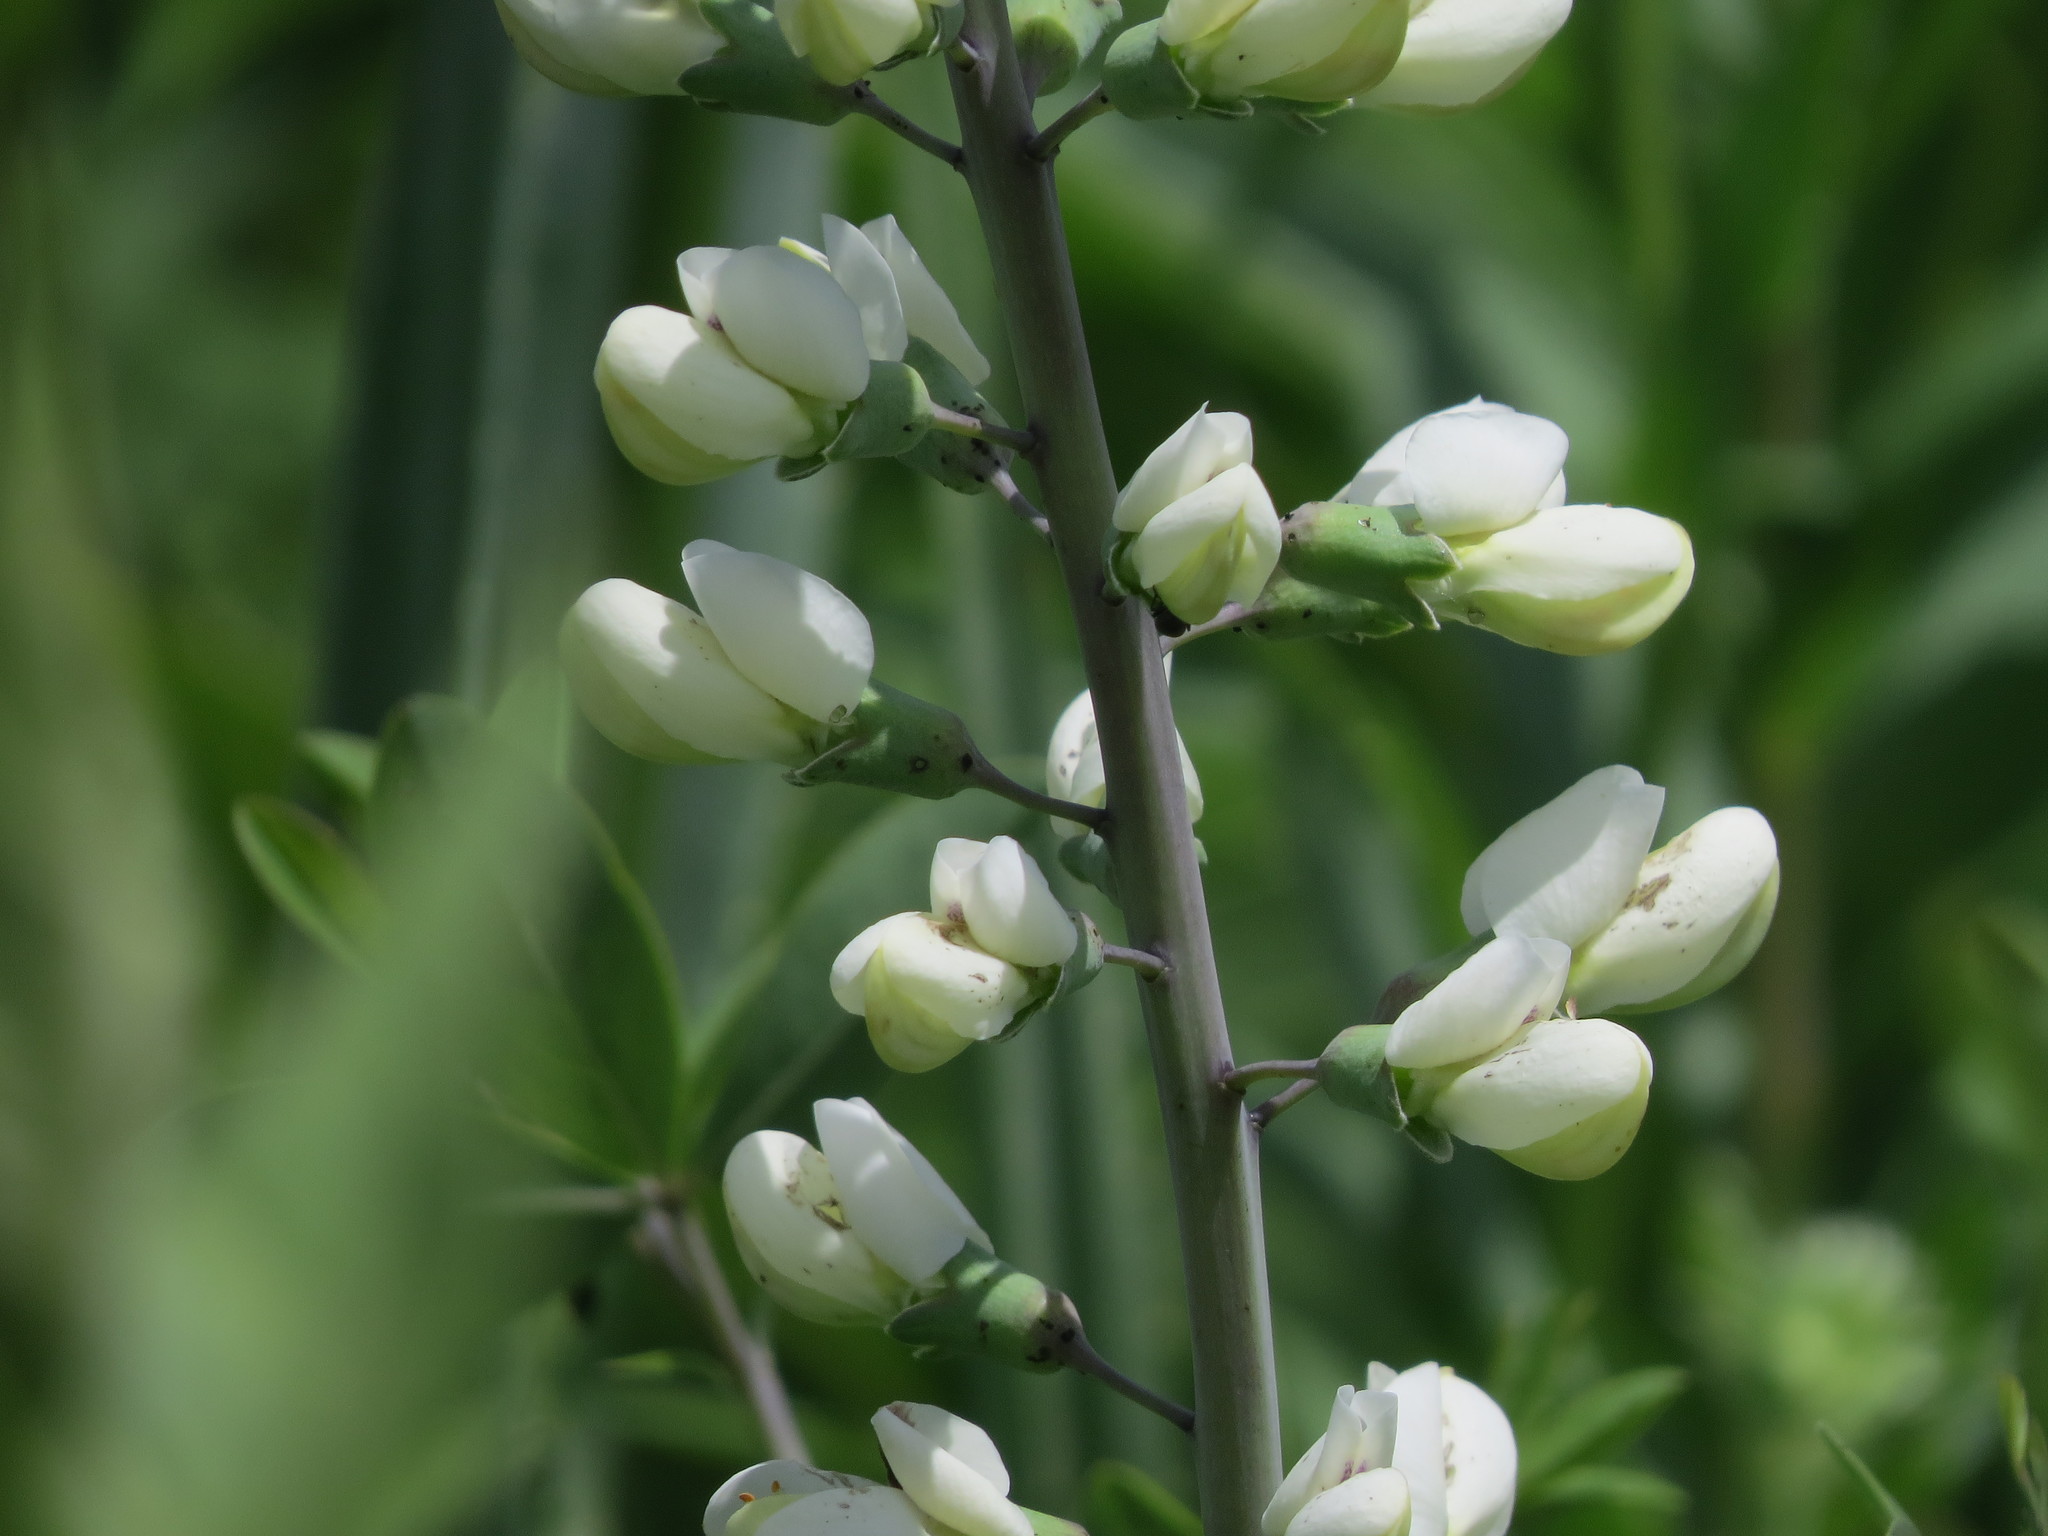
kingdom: Plantae
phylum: Tracheophyta
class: Magnoliopsida
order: Fabales
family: Fabaceae
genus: Baptisia
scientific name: Baptisia alba
